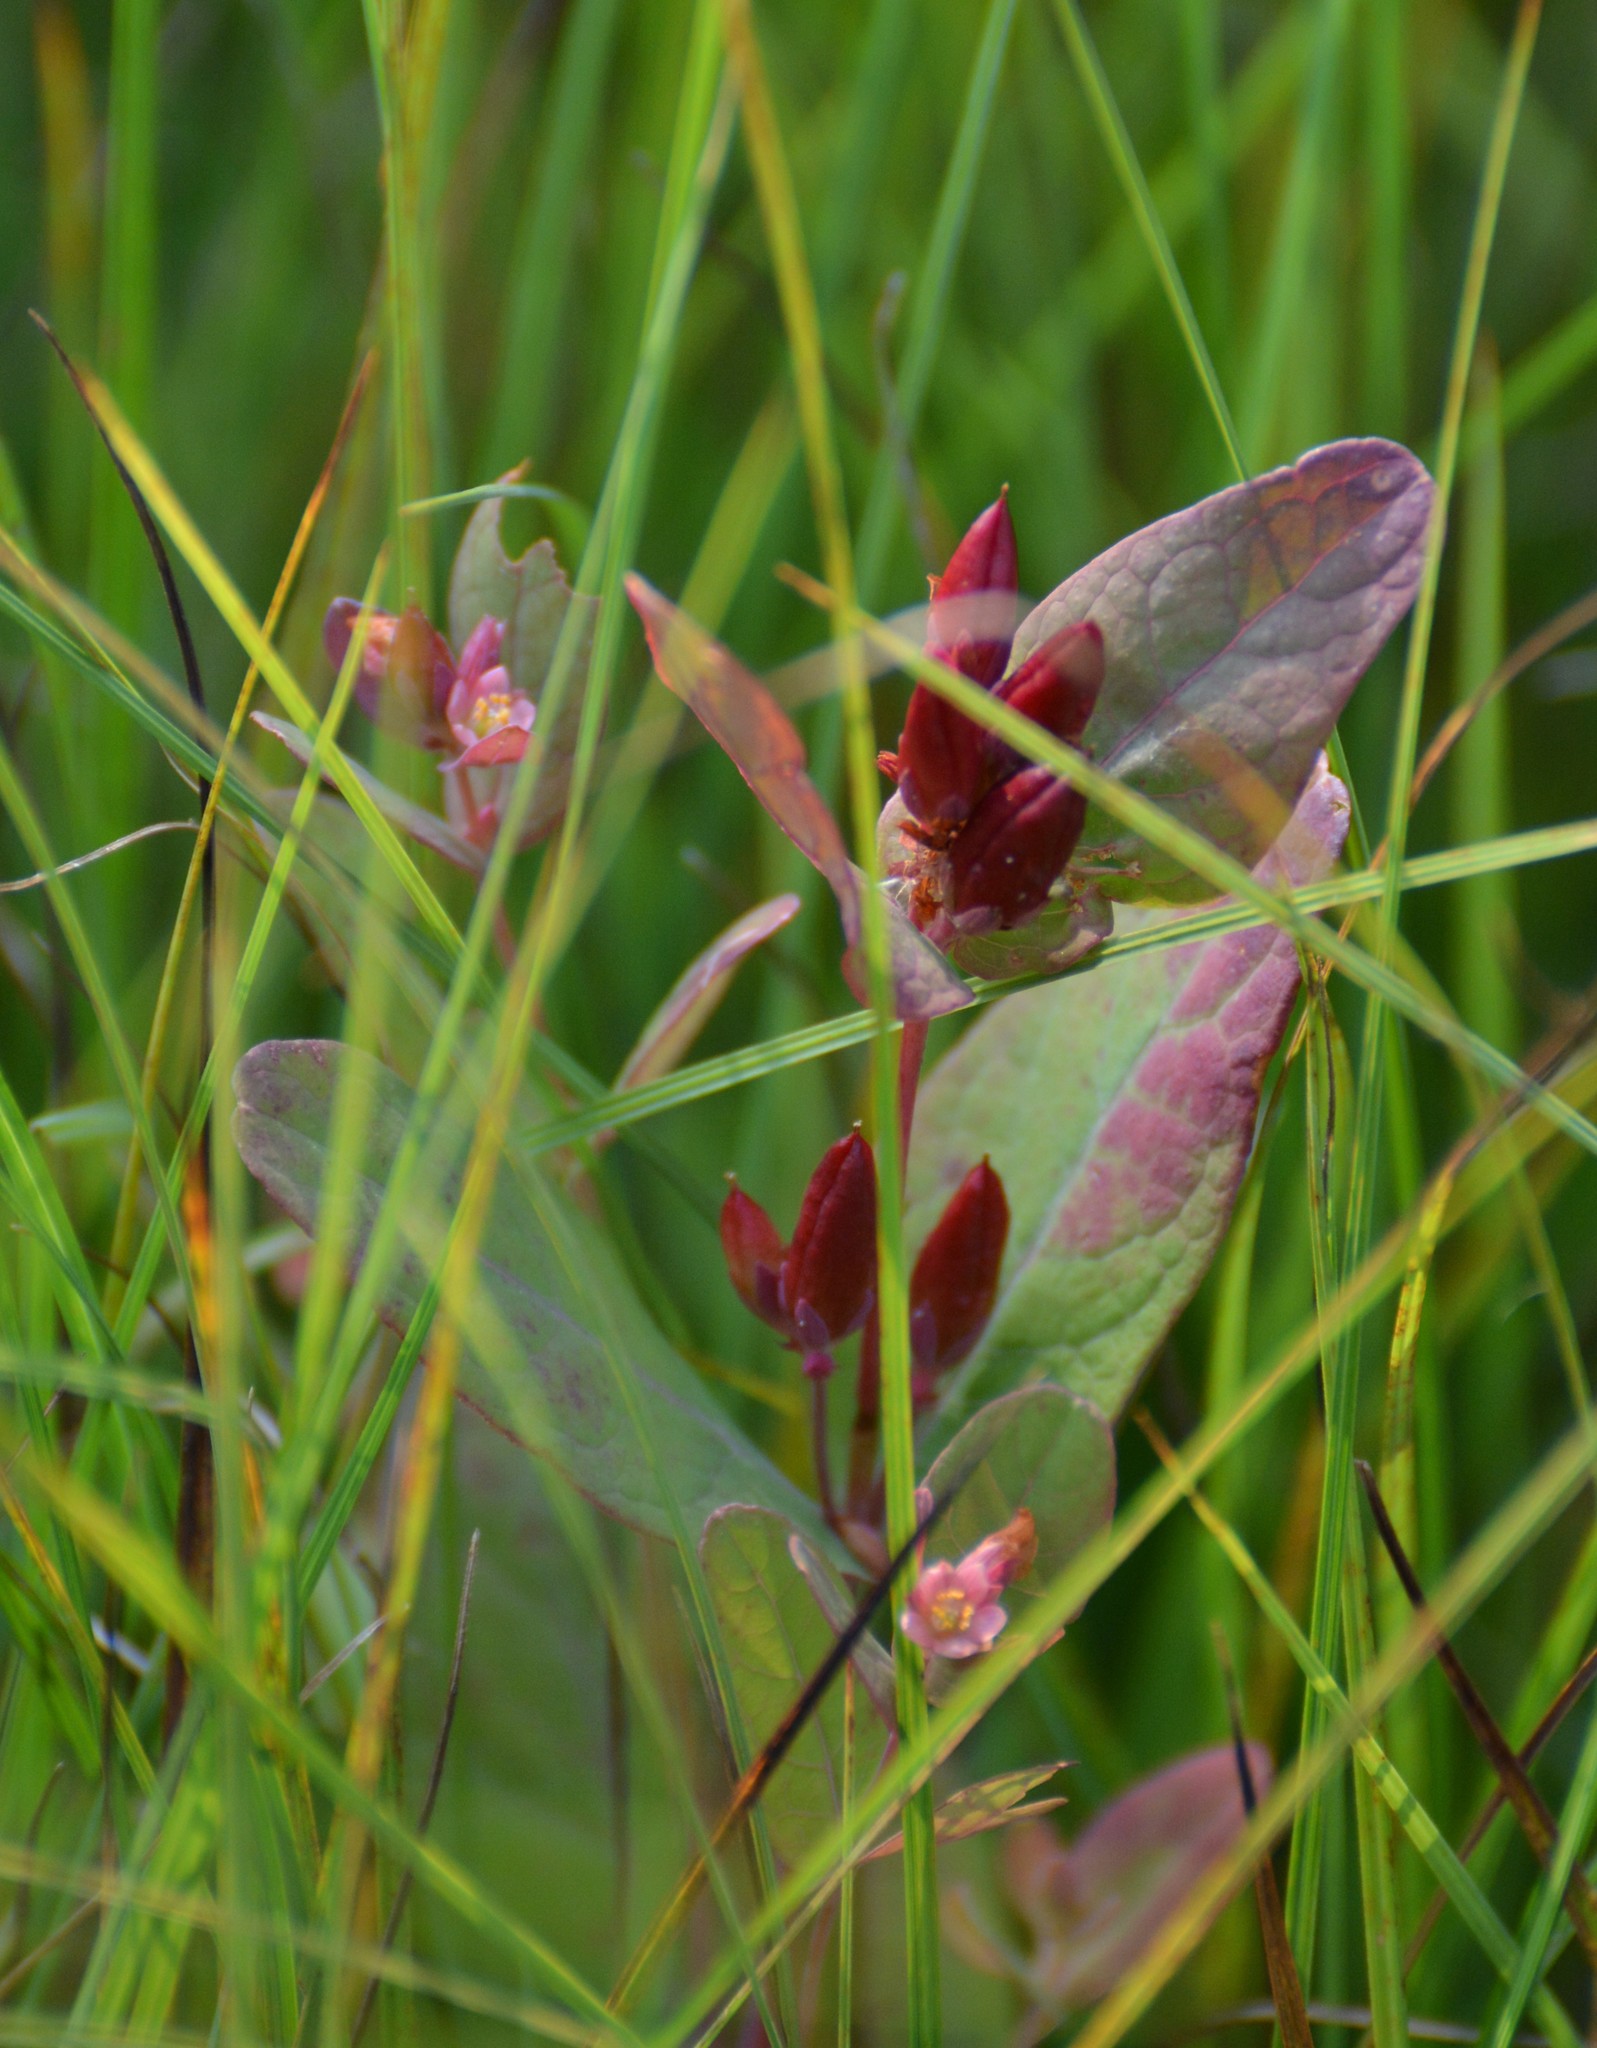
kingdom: Plantae
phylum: Tracheophyta
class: Magnoliopsida
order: Malpighiales
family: Hypericaceae
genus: Triadenum
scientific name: Triadenum fraseri
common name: Fraser's marsh st. johnswort
